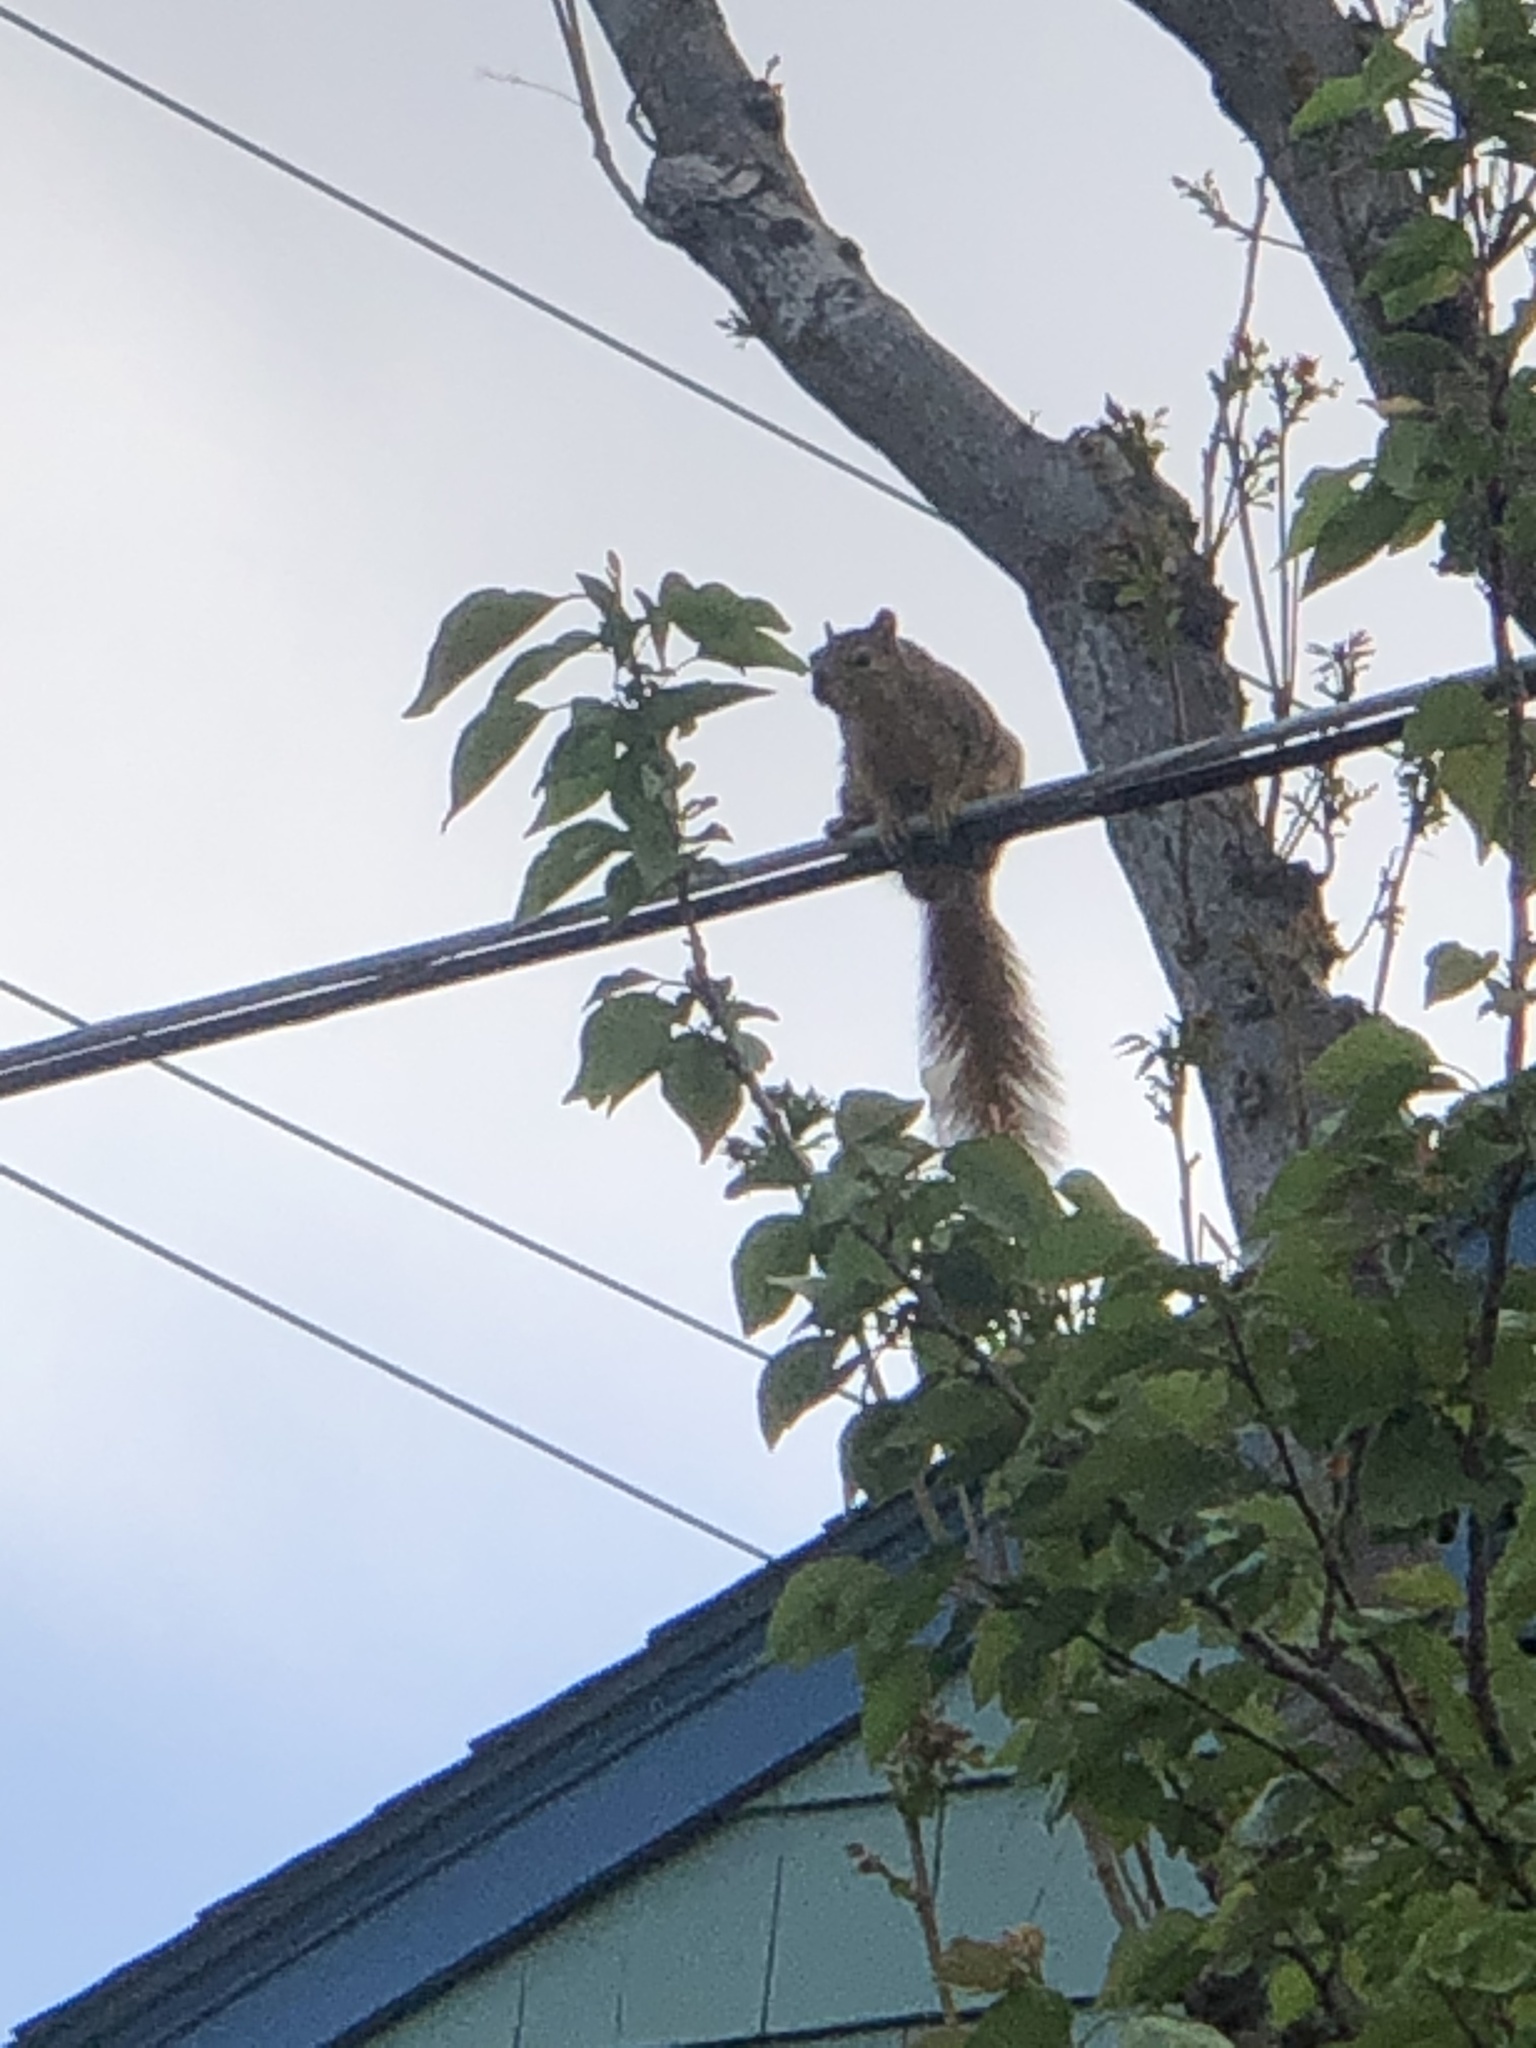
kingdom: Animalia
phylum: Chordata
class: Mammalia
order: Rodentia
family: Sciuridae
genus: Sciurus
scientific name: Sciurus niger
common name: Fox squirrel
